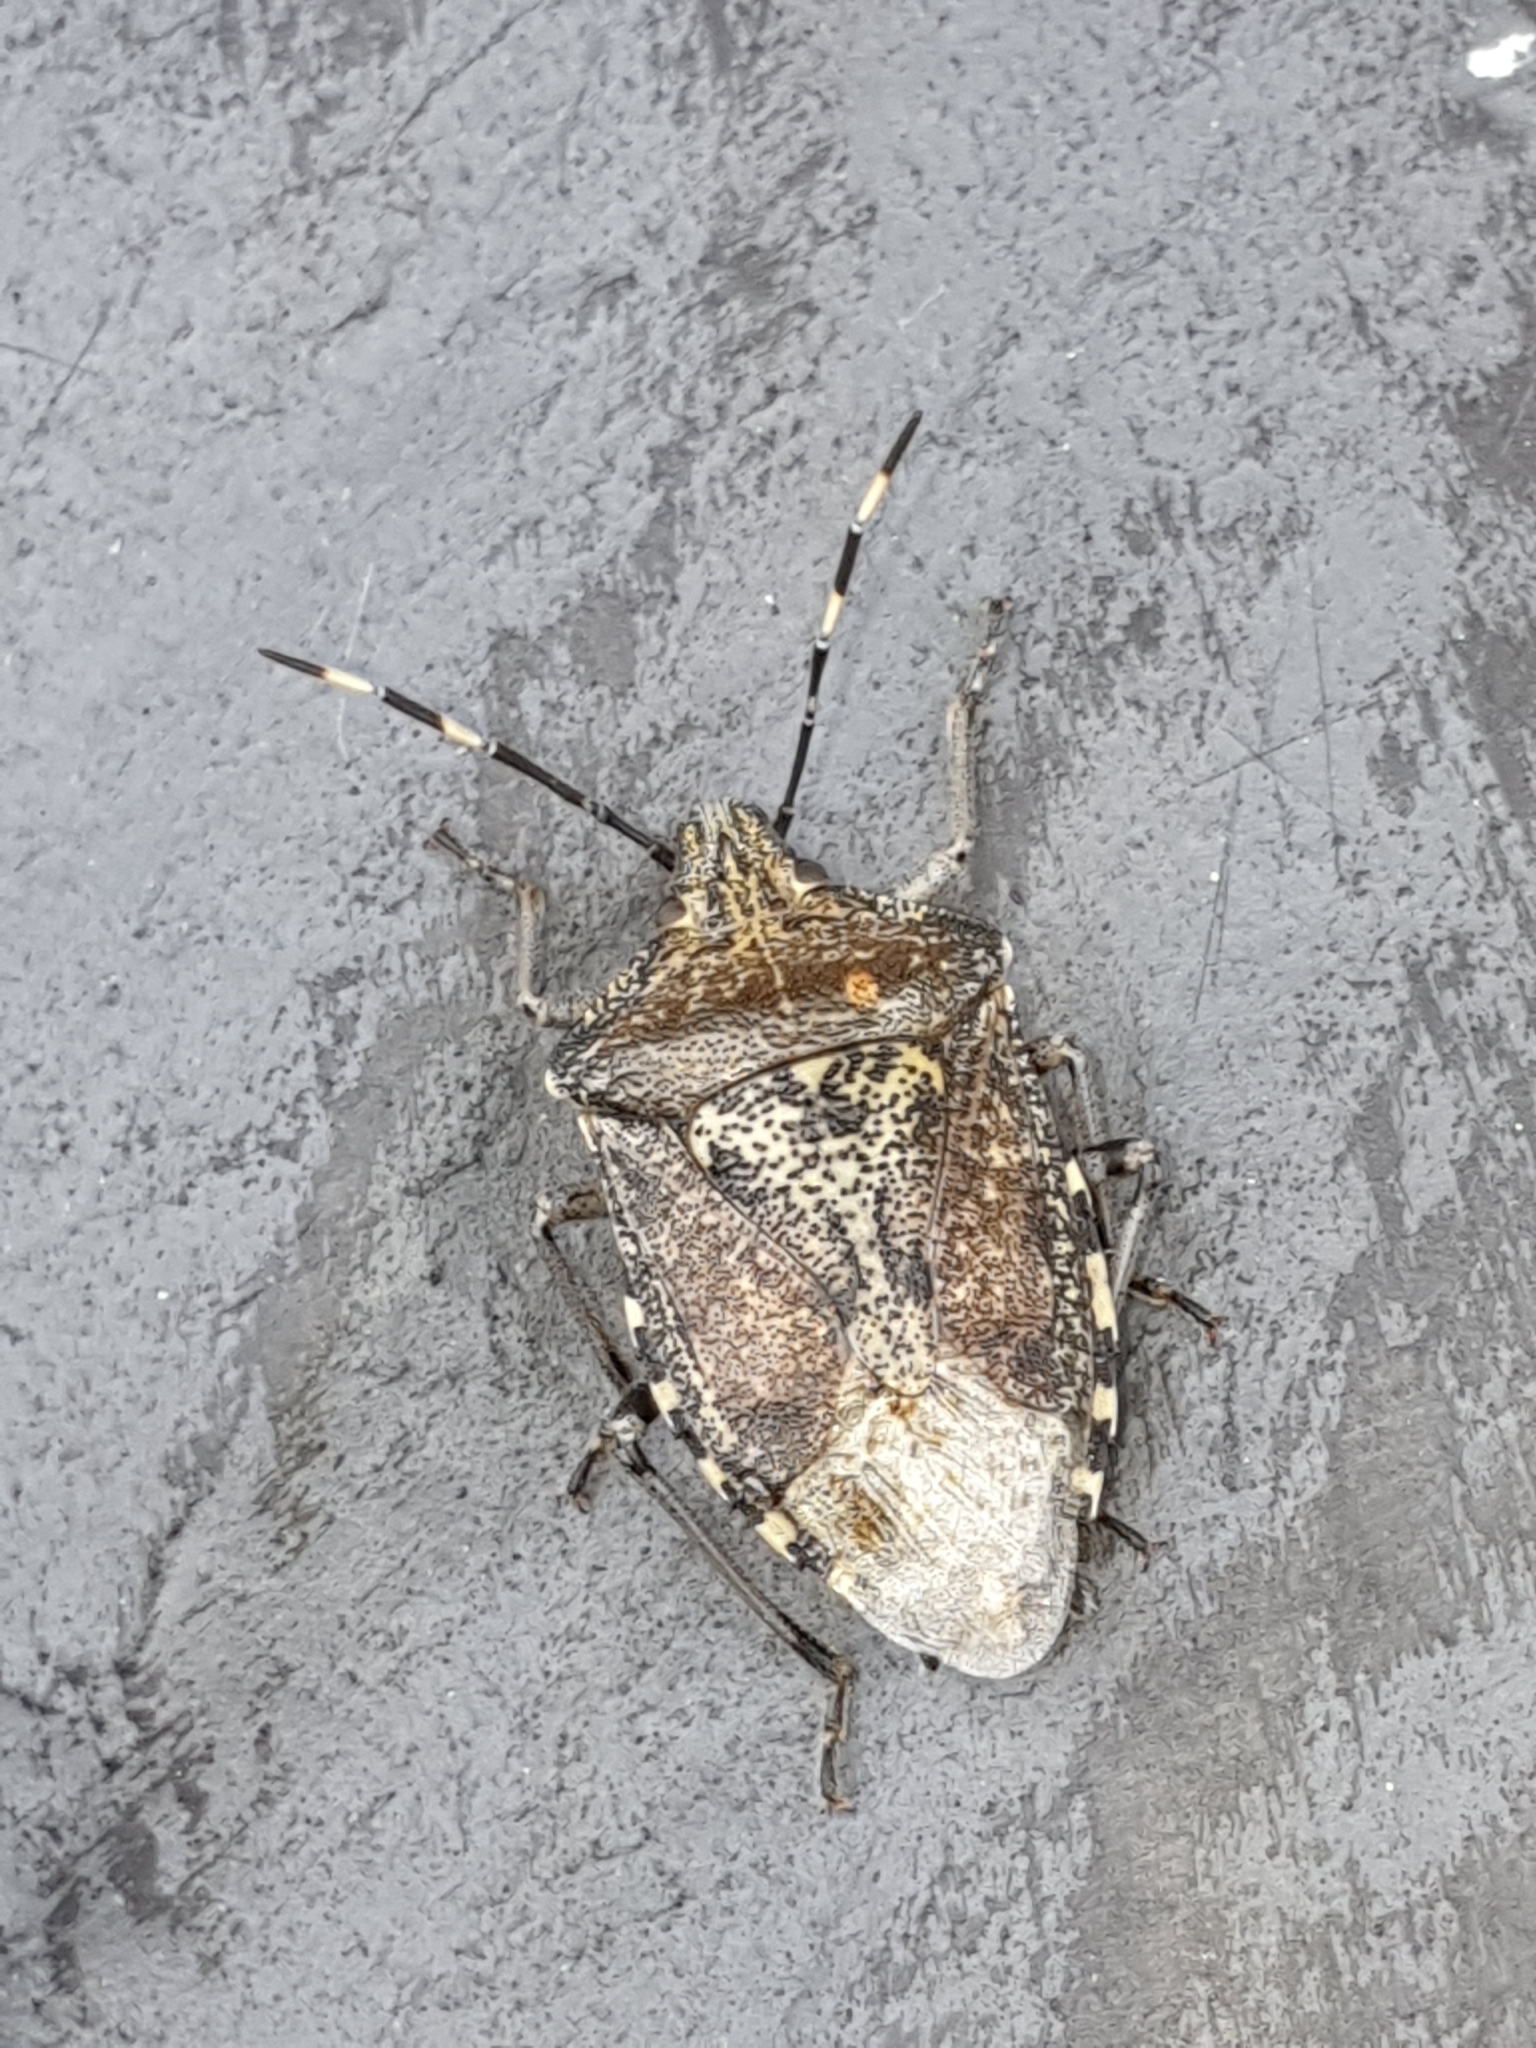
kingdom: Animalia
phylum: Arthropoda
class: Insecta
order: Hemiptera
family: Pentatomidae
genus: Rhaphigaster
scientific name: Rhaphigaster nebulosa
